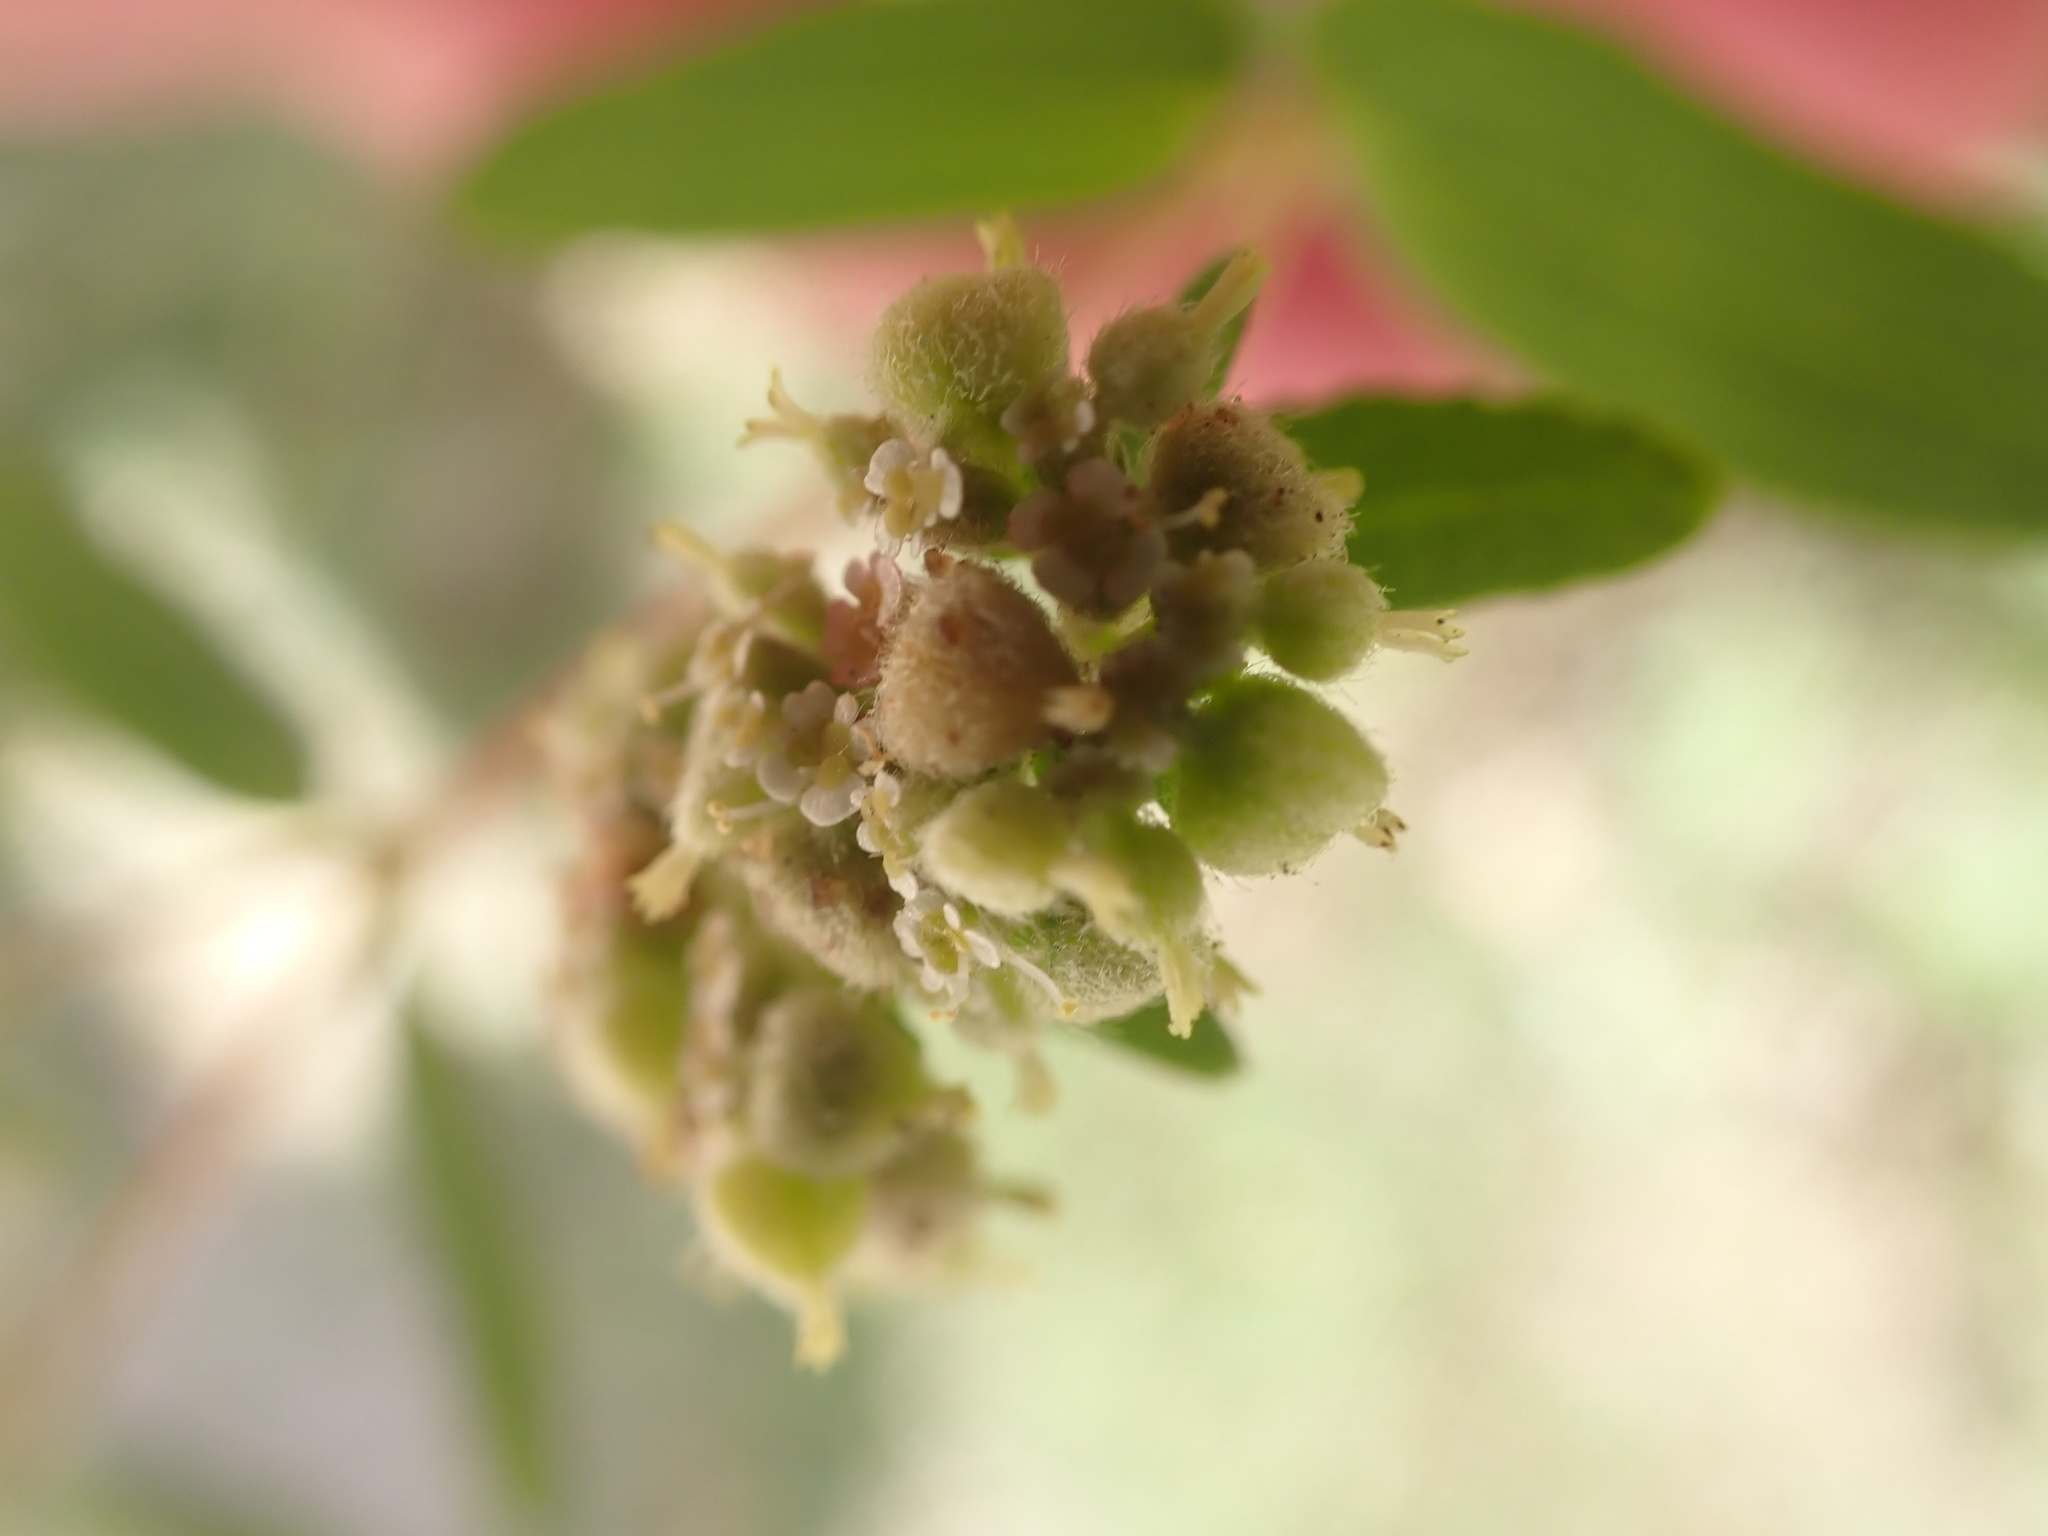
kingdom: Plantae
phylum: Tracheophyta
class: Magnoliopsida
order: Malpighiales
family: Euphorbiaceae
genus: Euphorbia
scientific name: Euphorbia lasiocarpa
